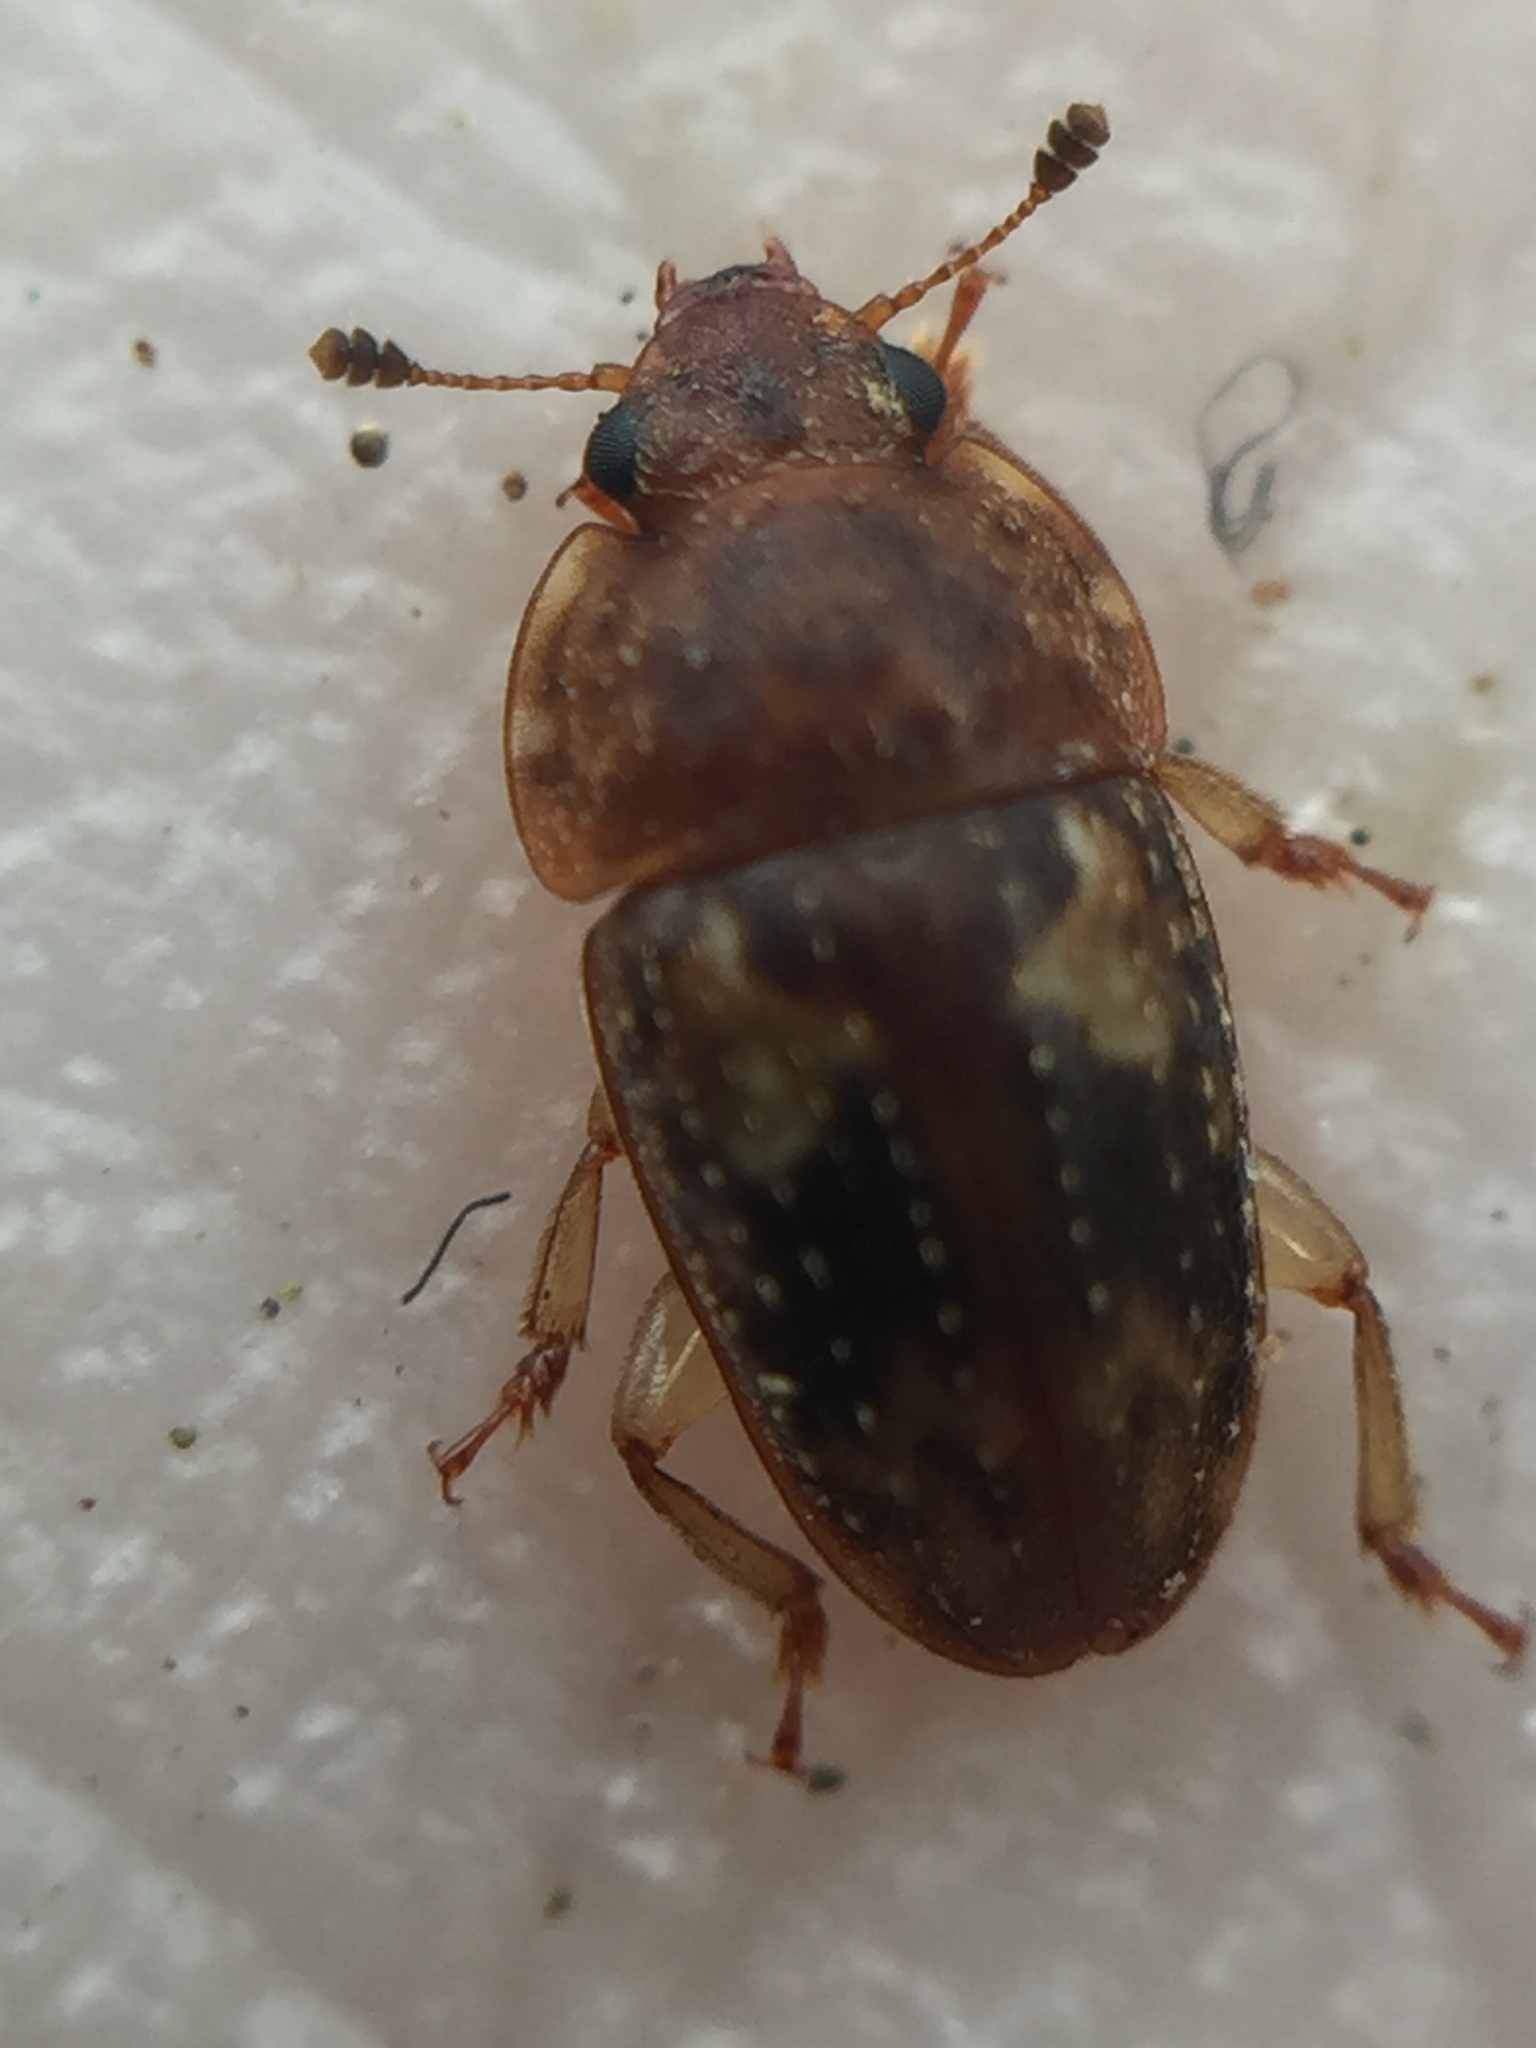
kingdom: Animalia
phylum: Arthropoda
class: Insecta
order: Coleoptera
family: Nitidulidae
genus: Homepuraea
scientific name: Homepuraea
